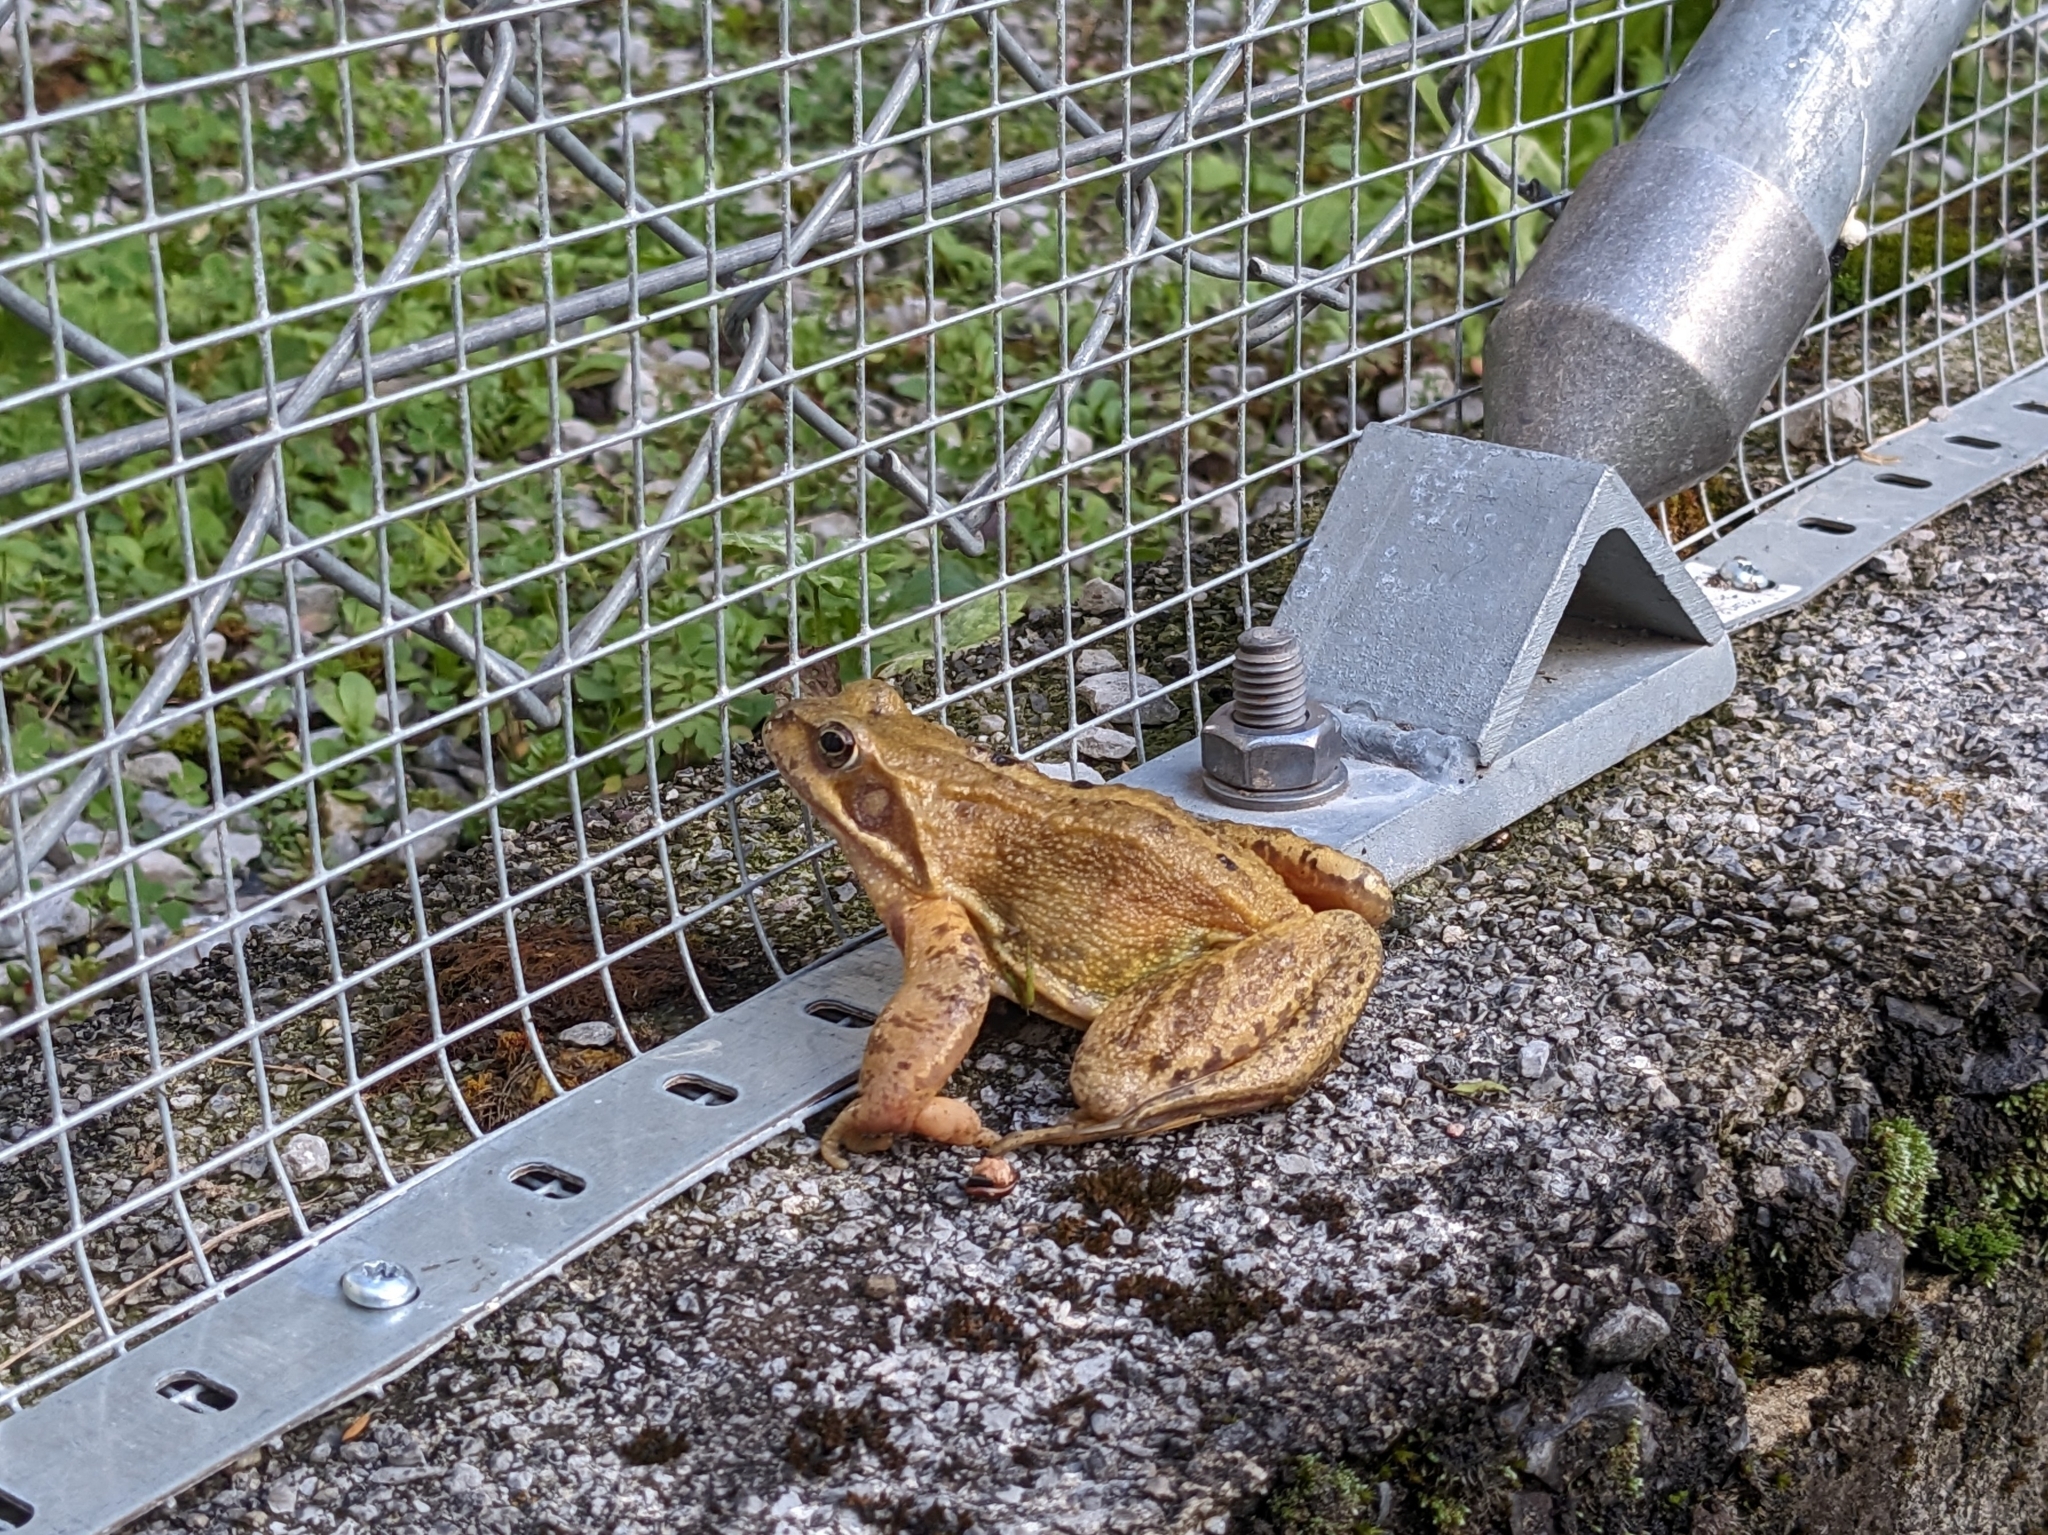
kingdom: Animalia
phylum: Chordata
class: Amphibia
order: Anura
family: Ranidae
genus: Rana
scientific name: Rana temporaria
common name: Common frog
